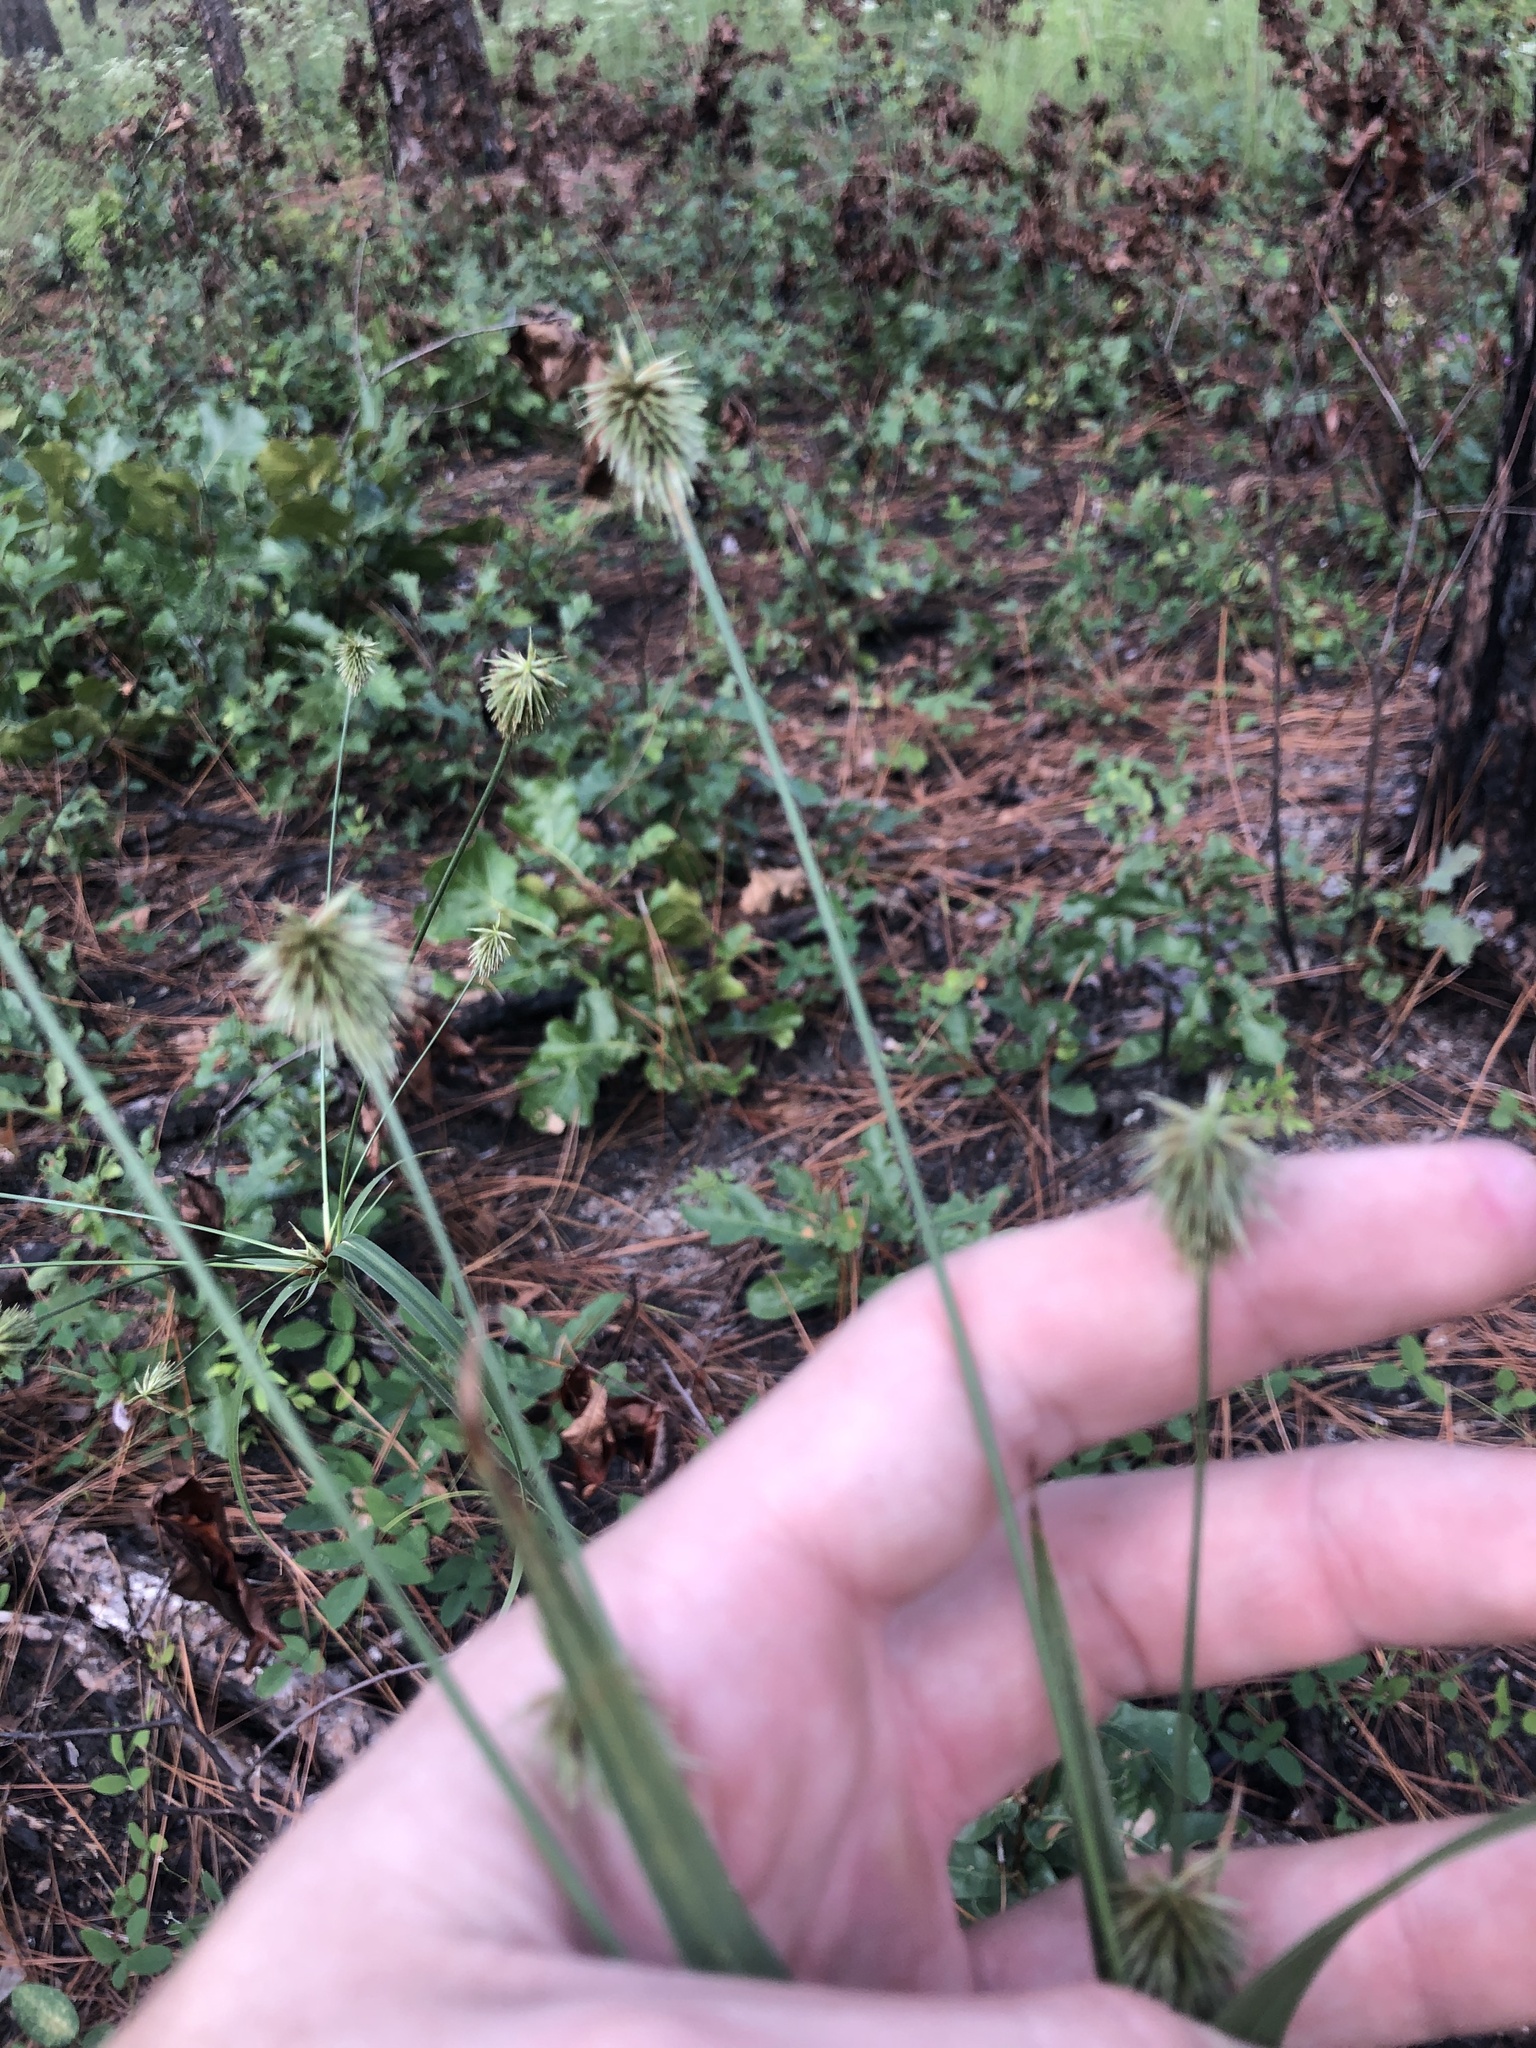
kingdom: Plantae
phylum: Tracheophyta
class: Liliopsida
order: Poales
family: Cyperaceae
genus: Cyperus
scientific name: Cyperus plukenetii
